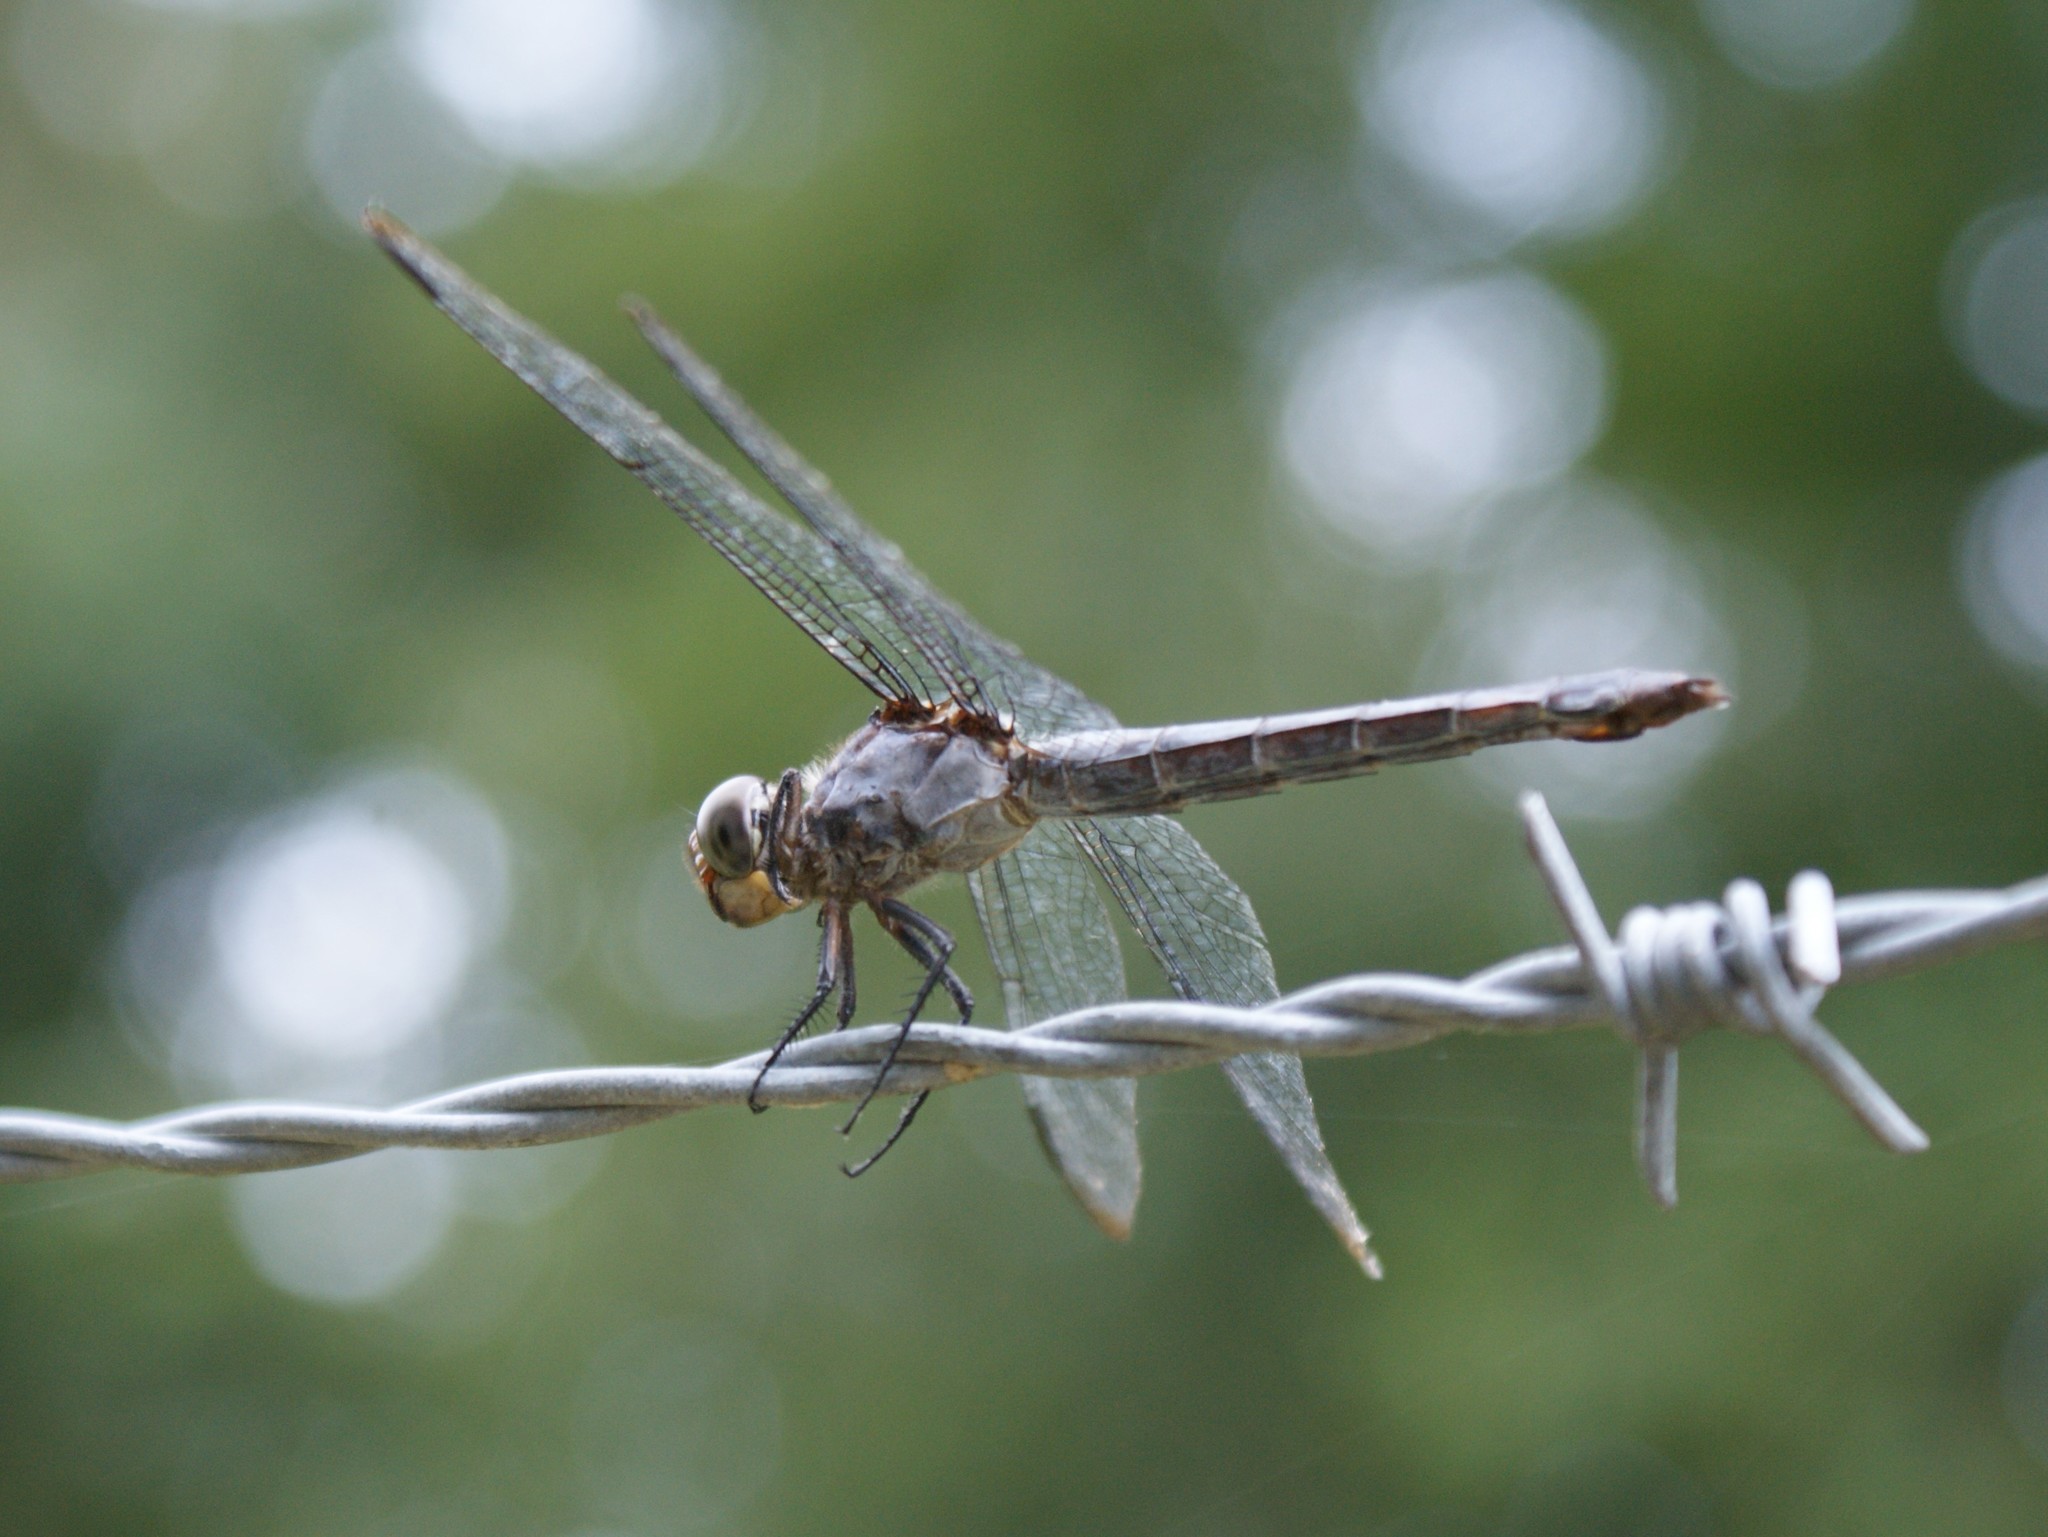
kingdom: Animalia
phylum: Arthropoda
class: Insecta
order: Odonata
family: Libellulidae
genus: Libellula
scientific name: Libellula incesta
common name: Slaty skimmer
